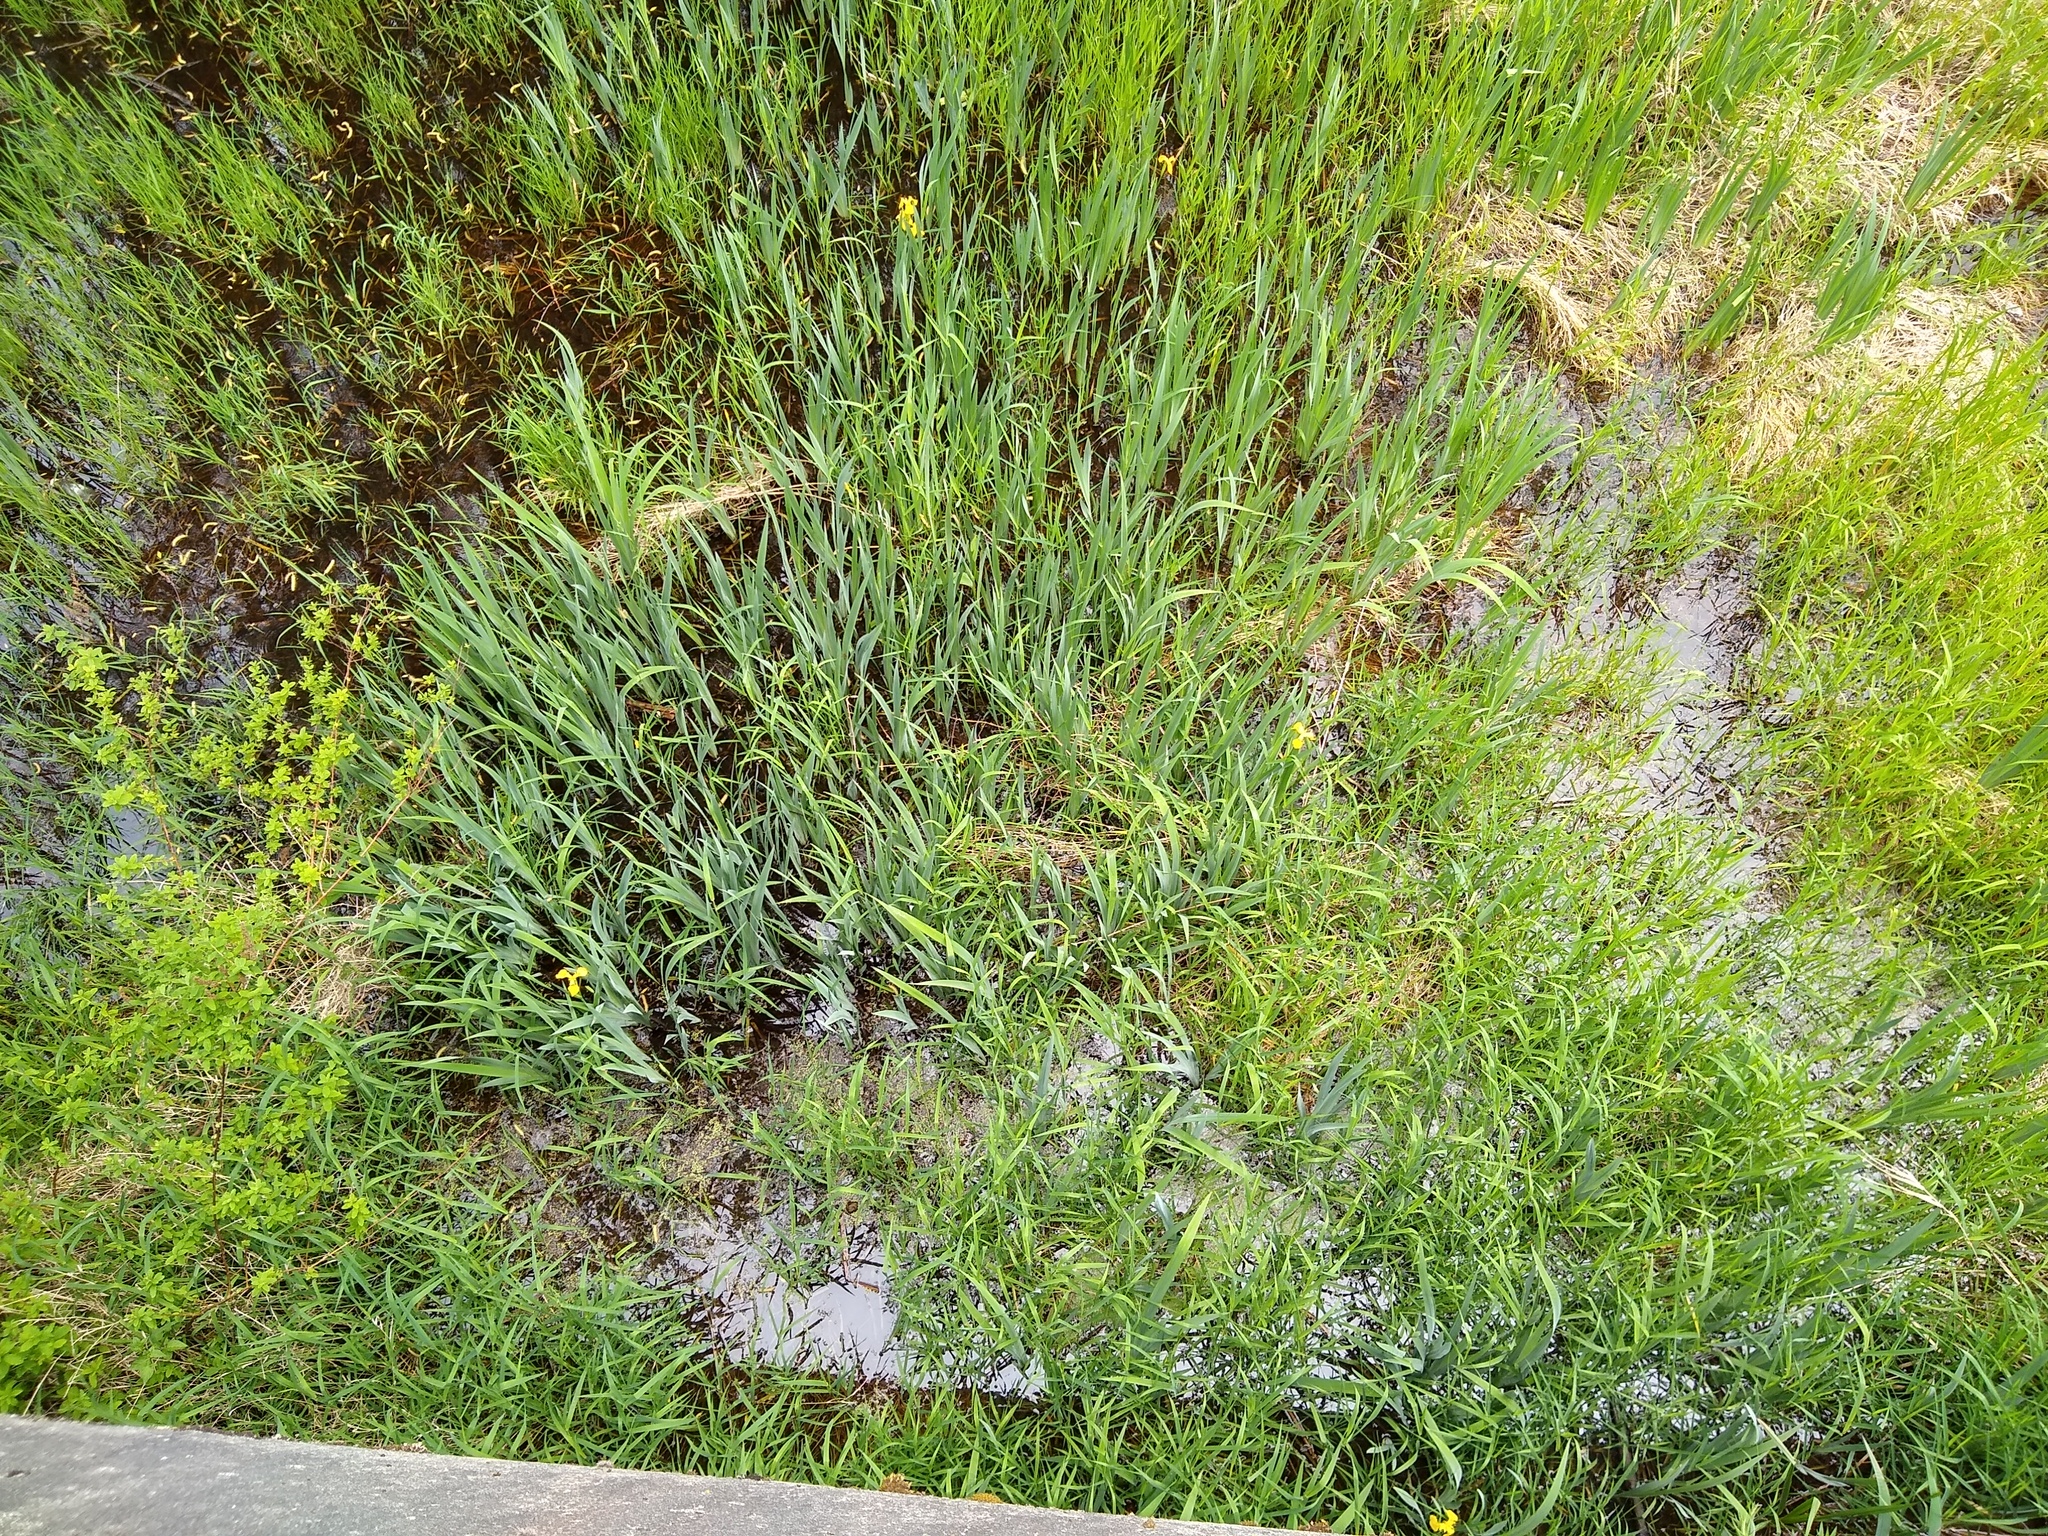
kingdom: Plantae
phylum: Tracheophyta
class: Liliopsida
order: Asparagales
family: Iridaceae
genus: Iris
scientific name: Iris pseudacorus
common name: Yellow flag
